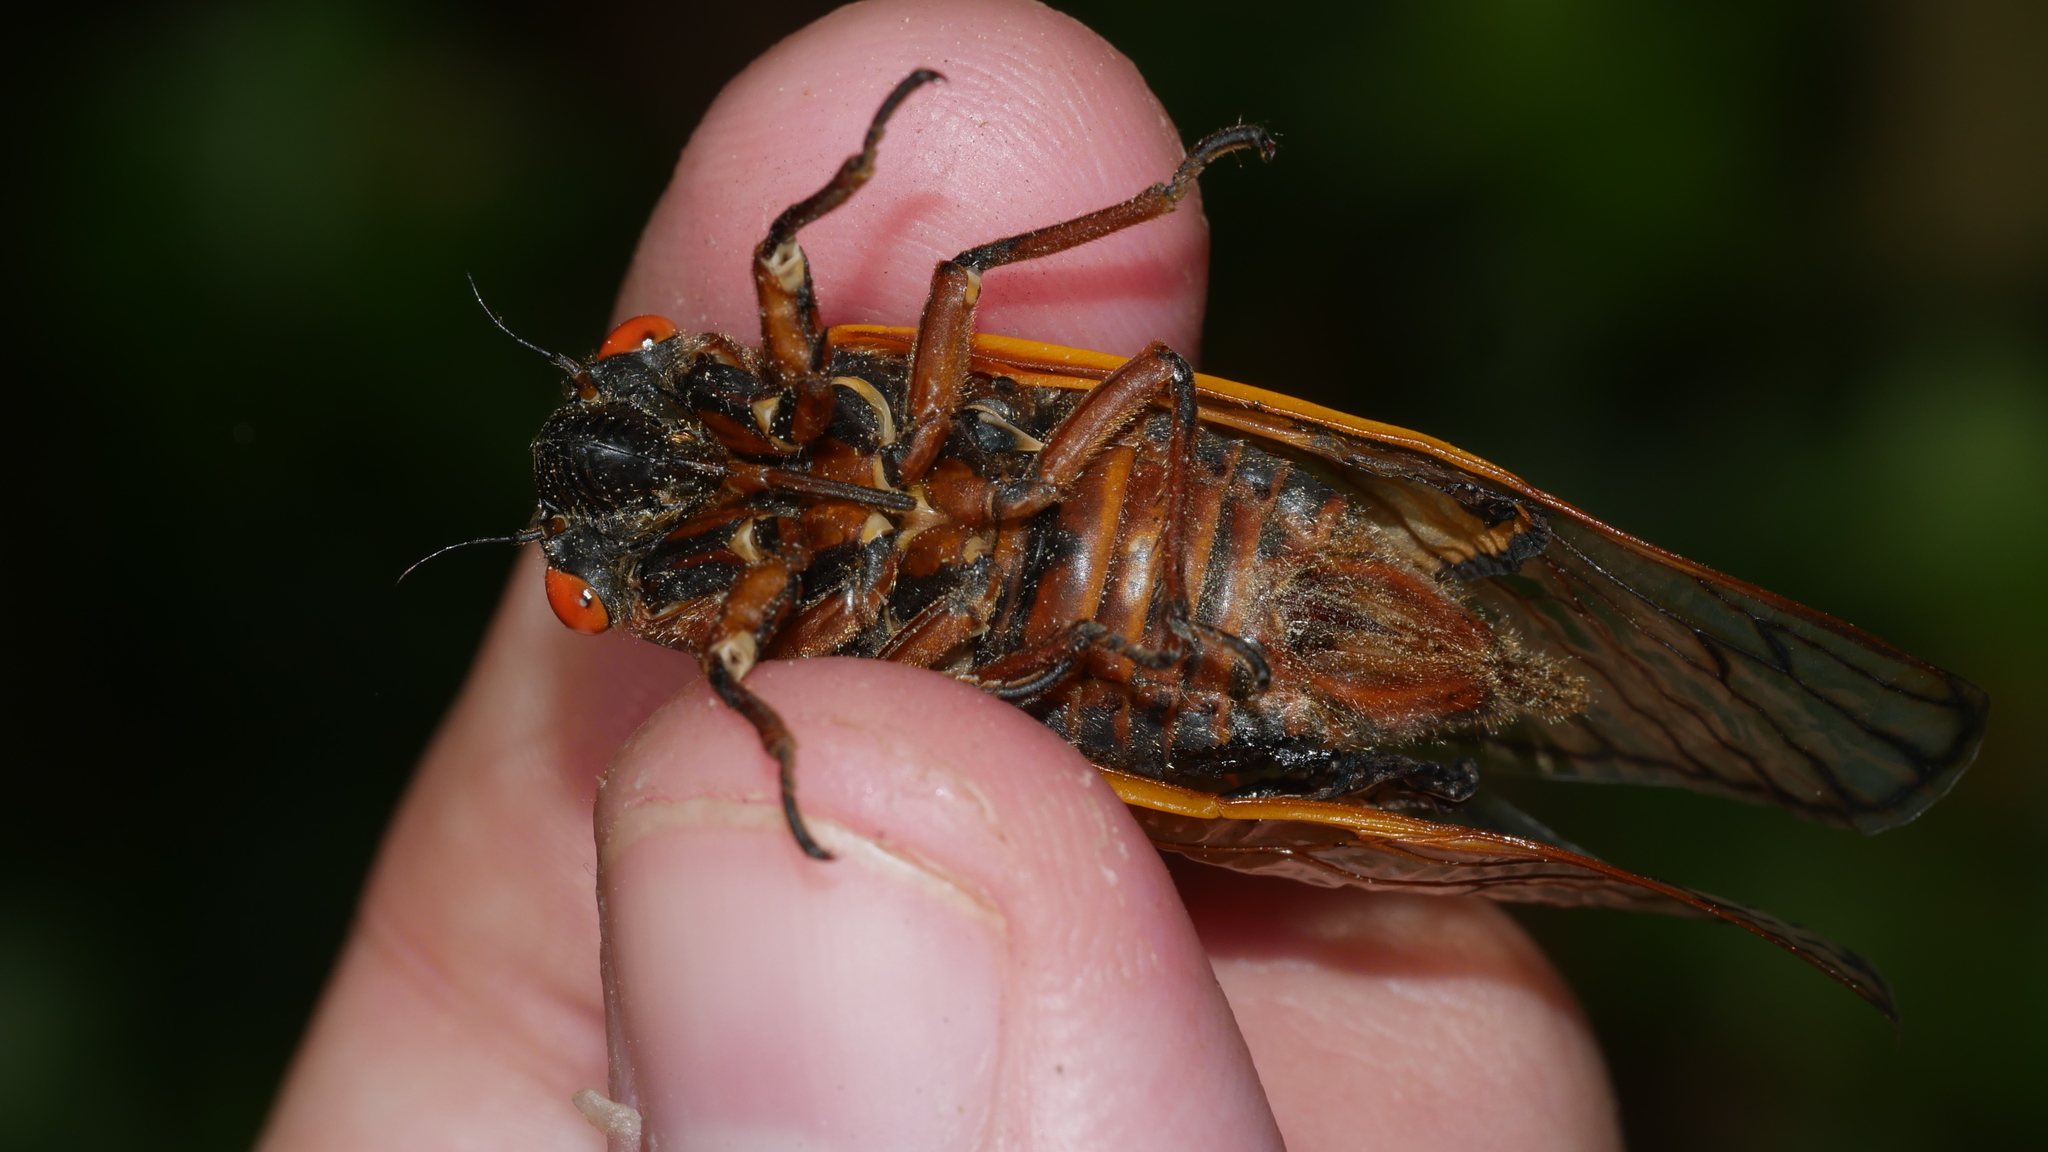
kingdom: Animalia
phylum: Arthropoda
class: Insecta
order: Hemiptera
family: Cicadidae
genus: Magicicada
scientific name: Magicicada septendecim
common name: Periodical cicada
